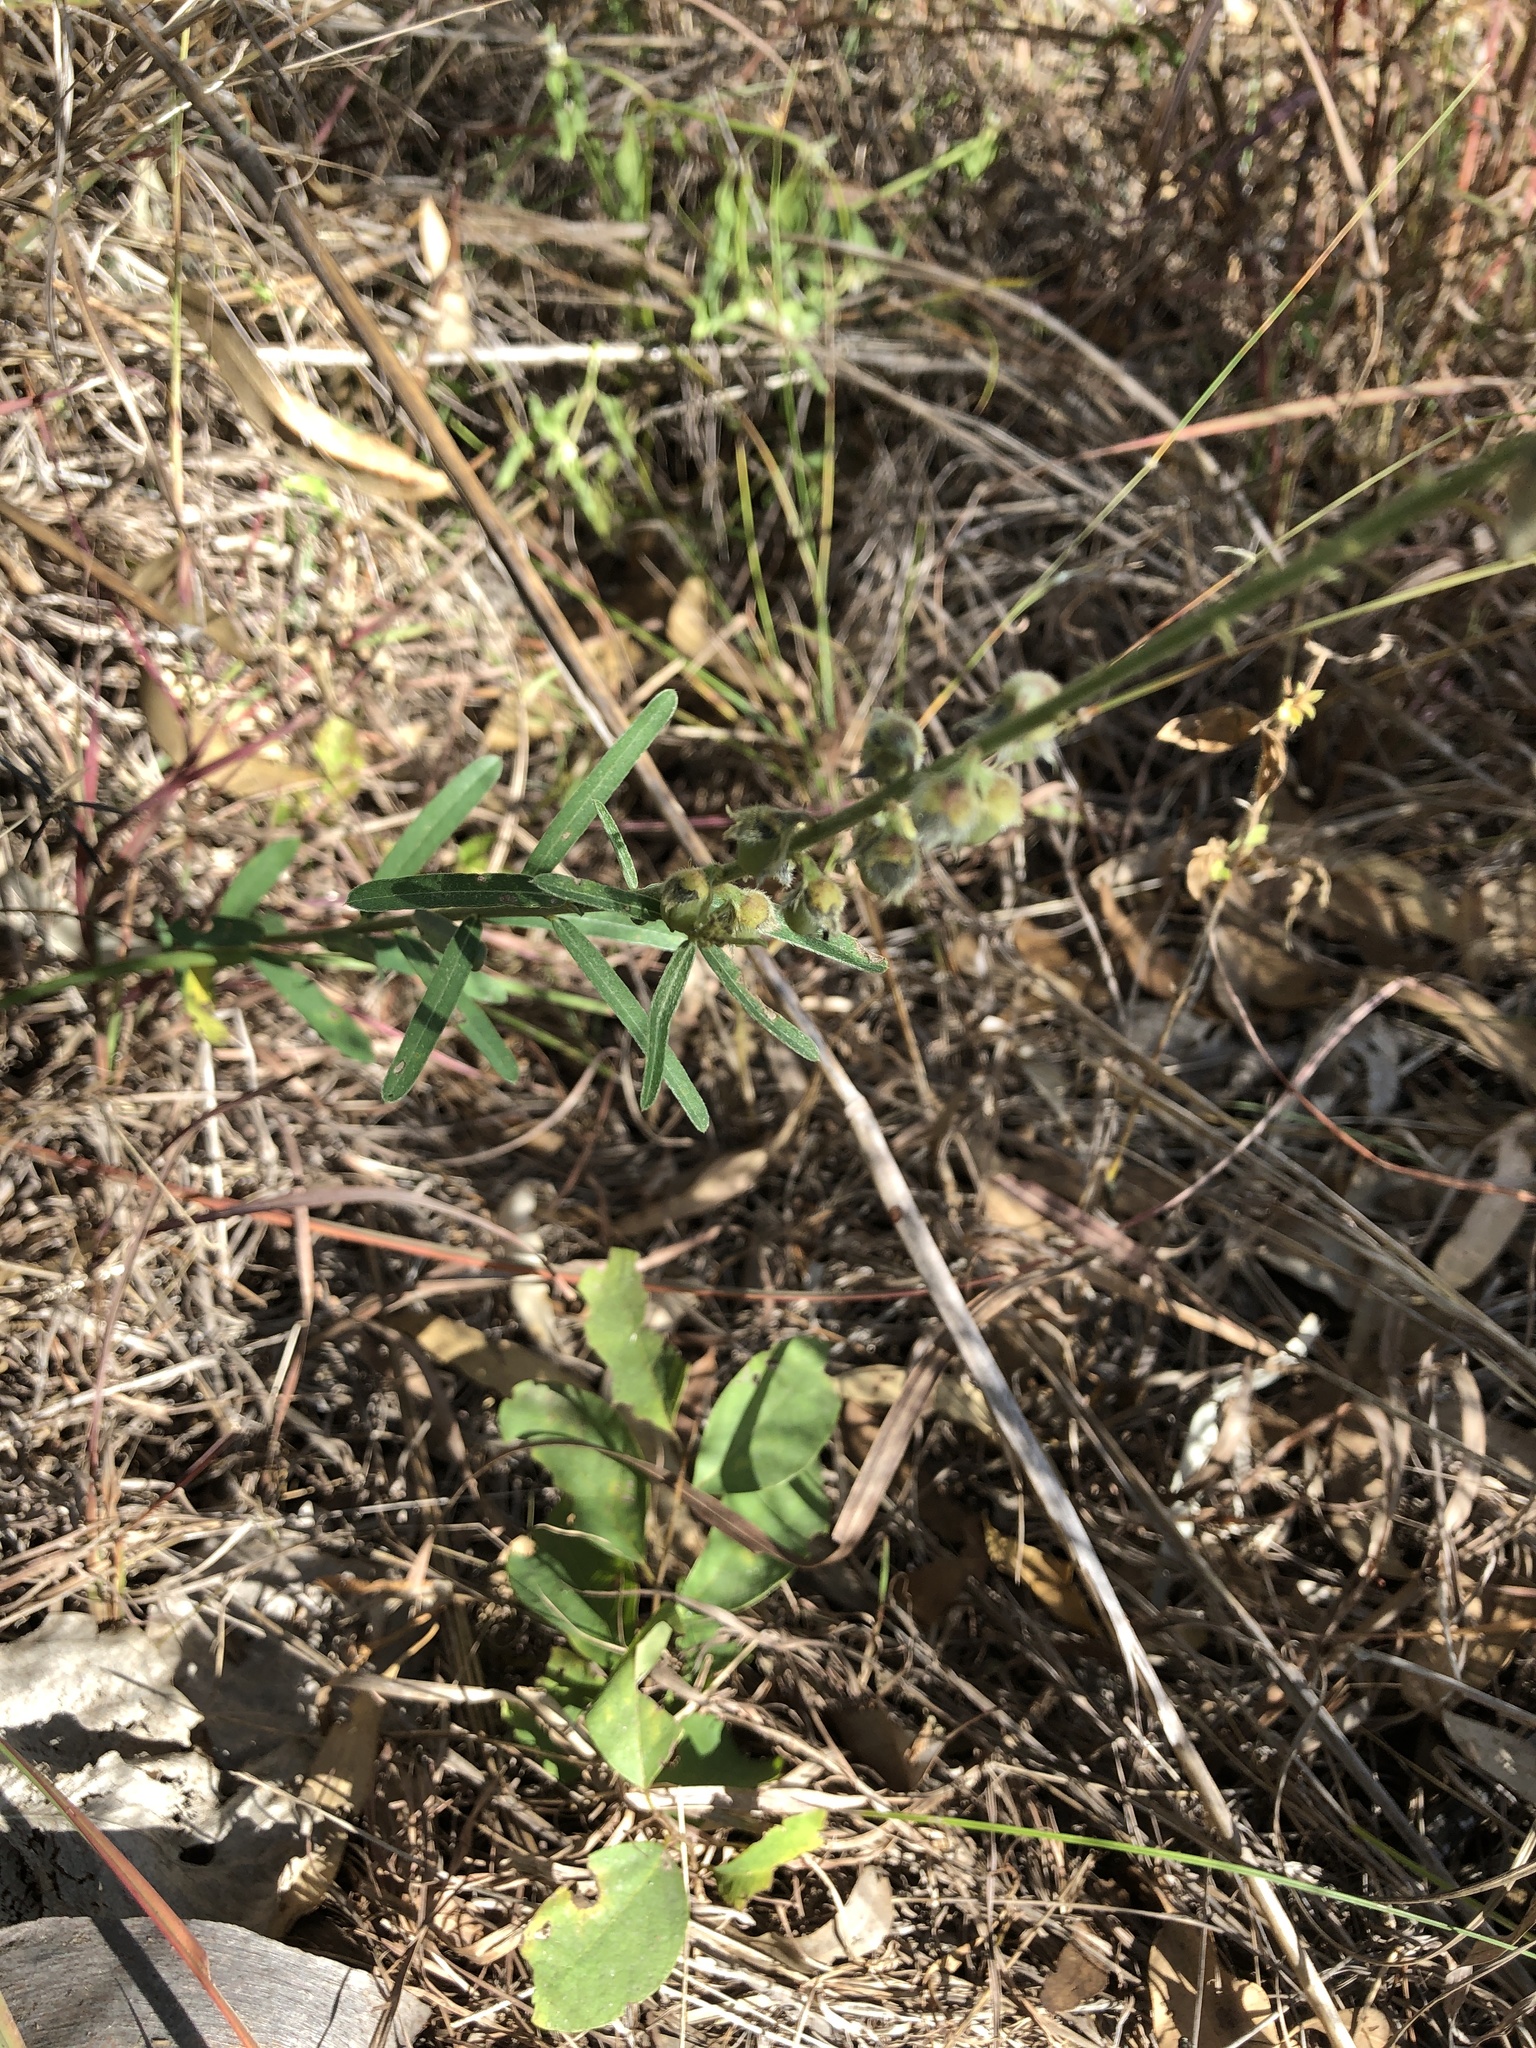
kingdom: Plantae
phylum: Tracheophyta
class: Magnoliopsida
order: Fabales
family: Fabaceae
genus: Crotalaria
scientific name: Crotalaria montana
